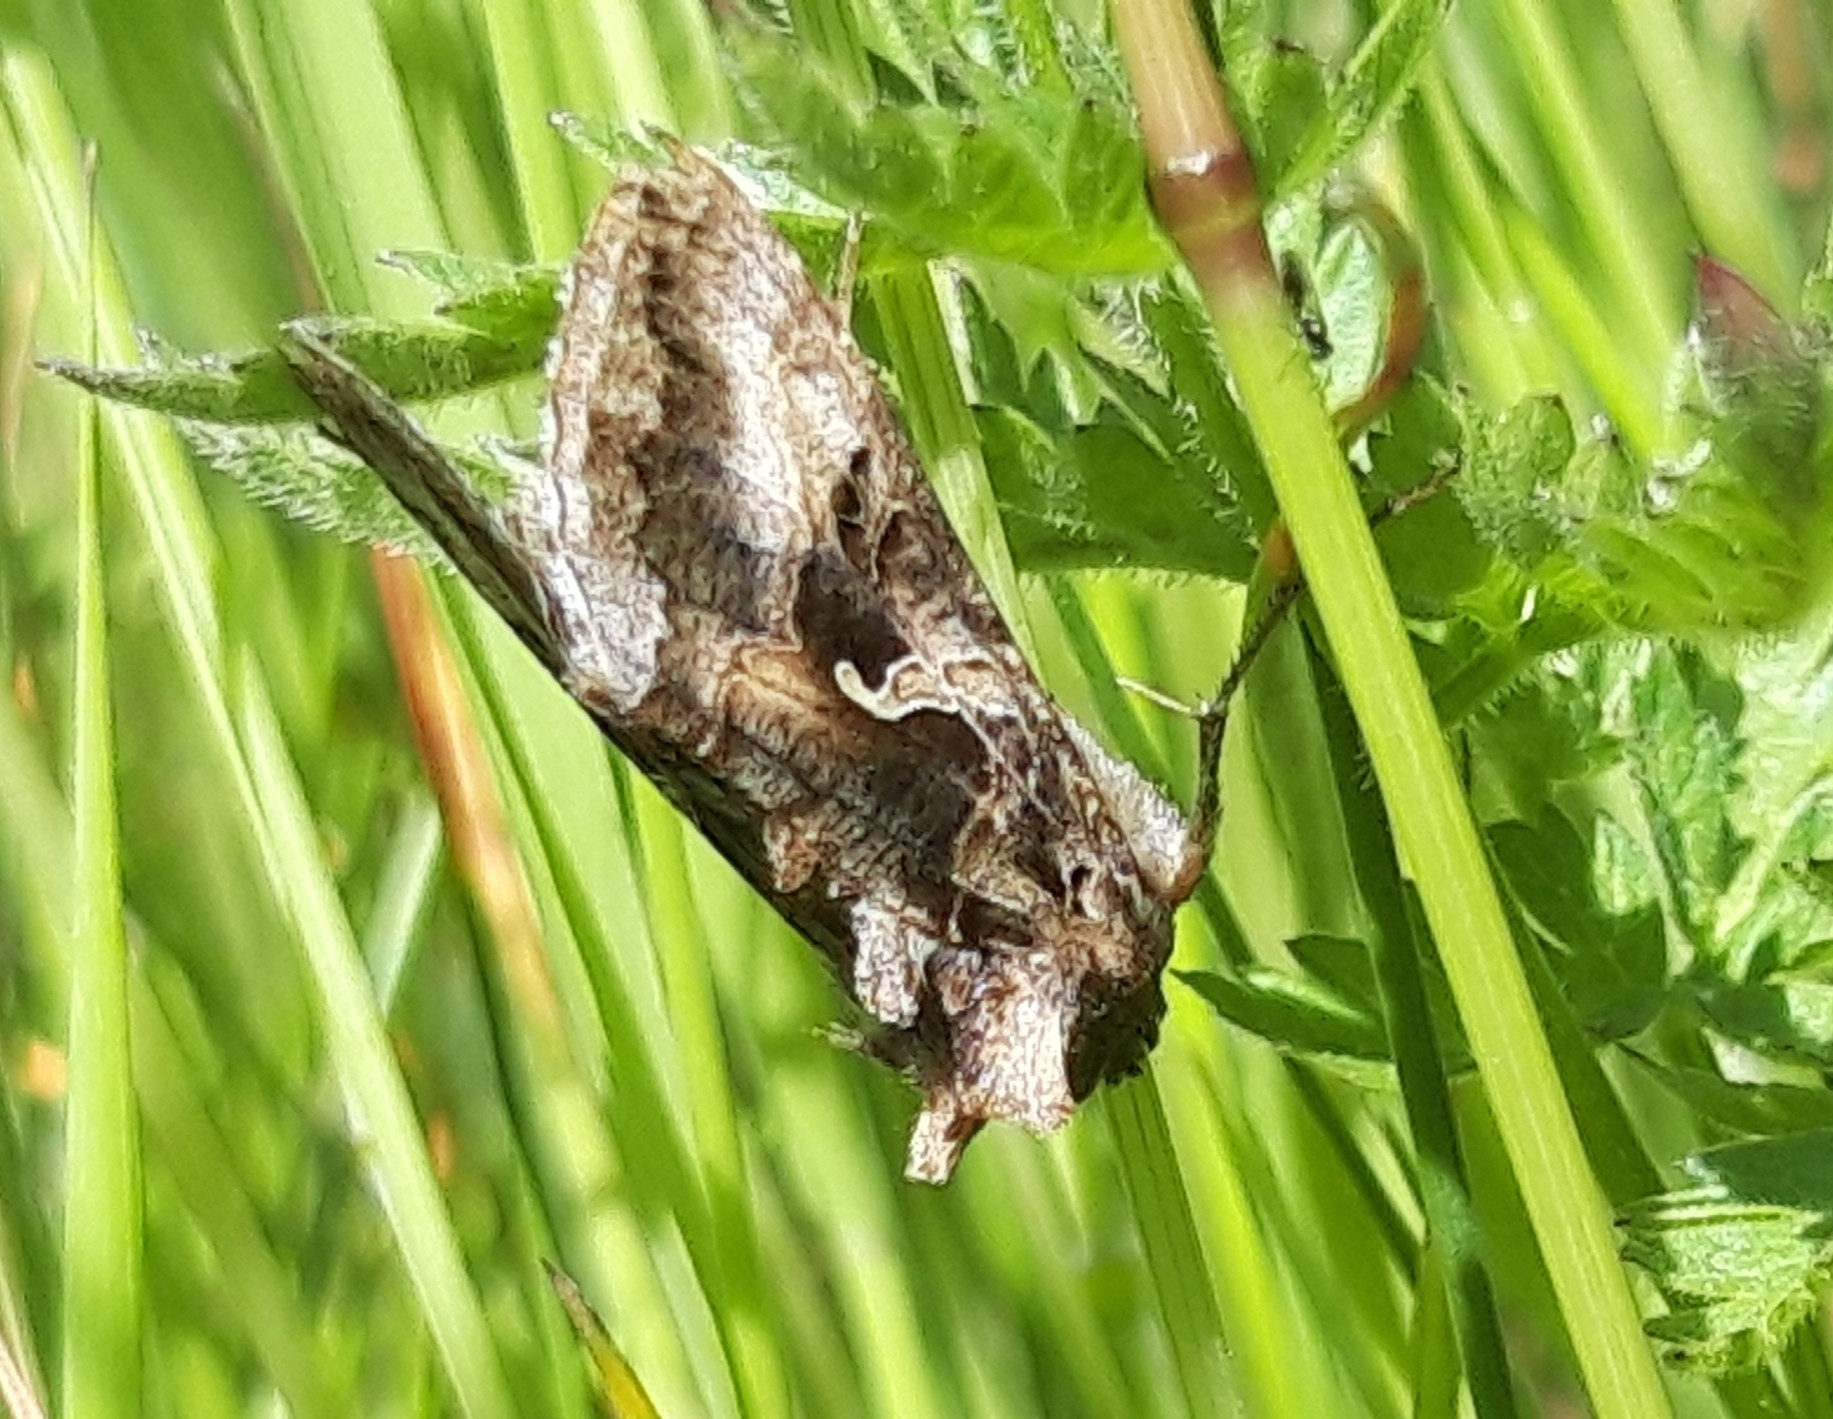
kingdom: Animalia
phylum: Arthropoda
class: Insecta
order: Lepidoptera
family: Noctuidae
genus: Autographa
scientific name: Autographa gamma
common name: Silver y
